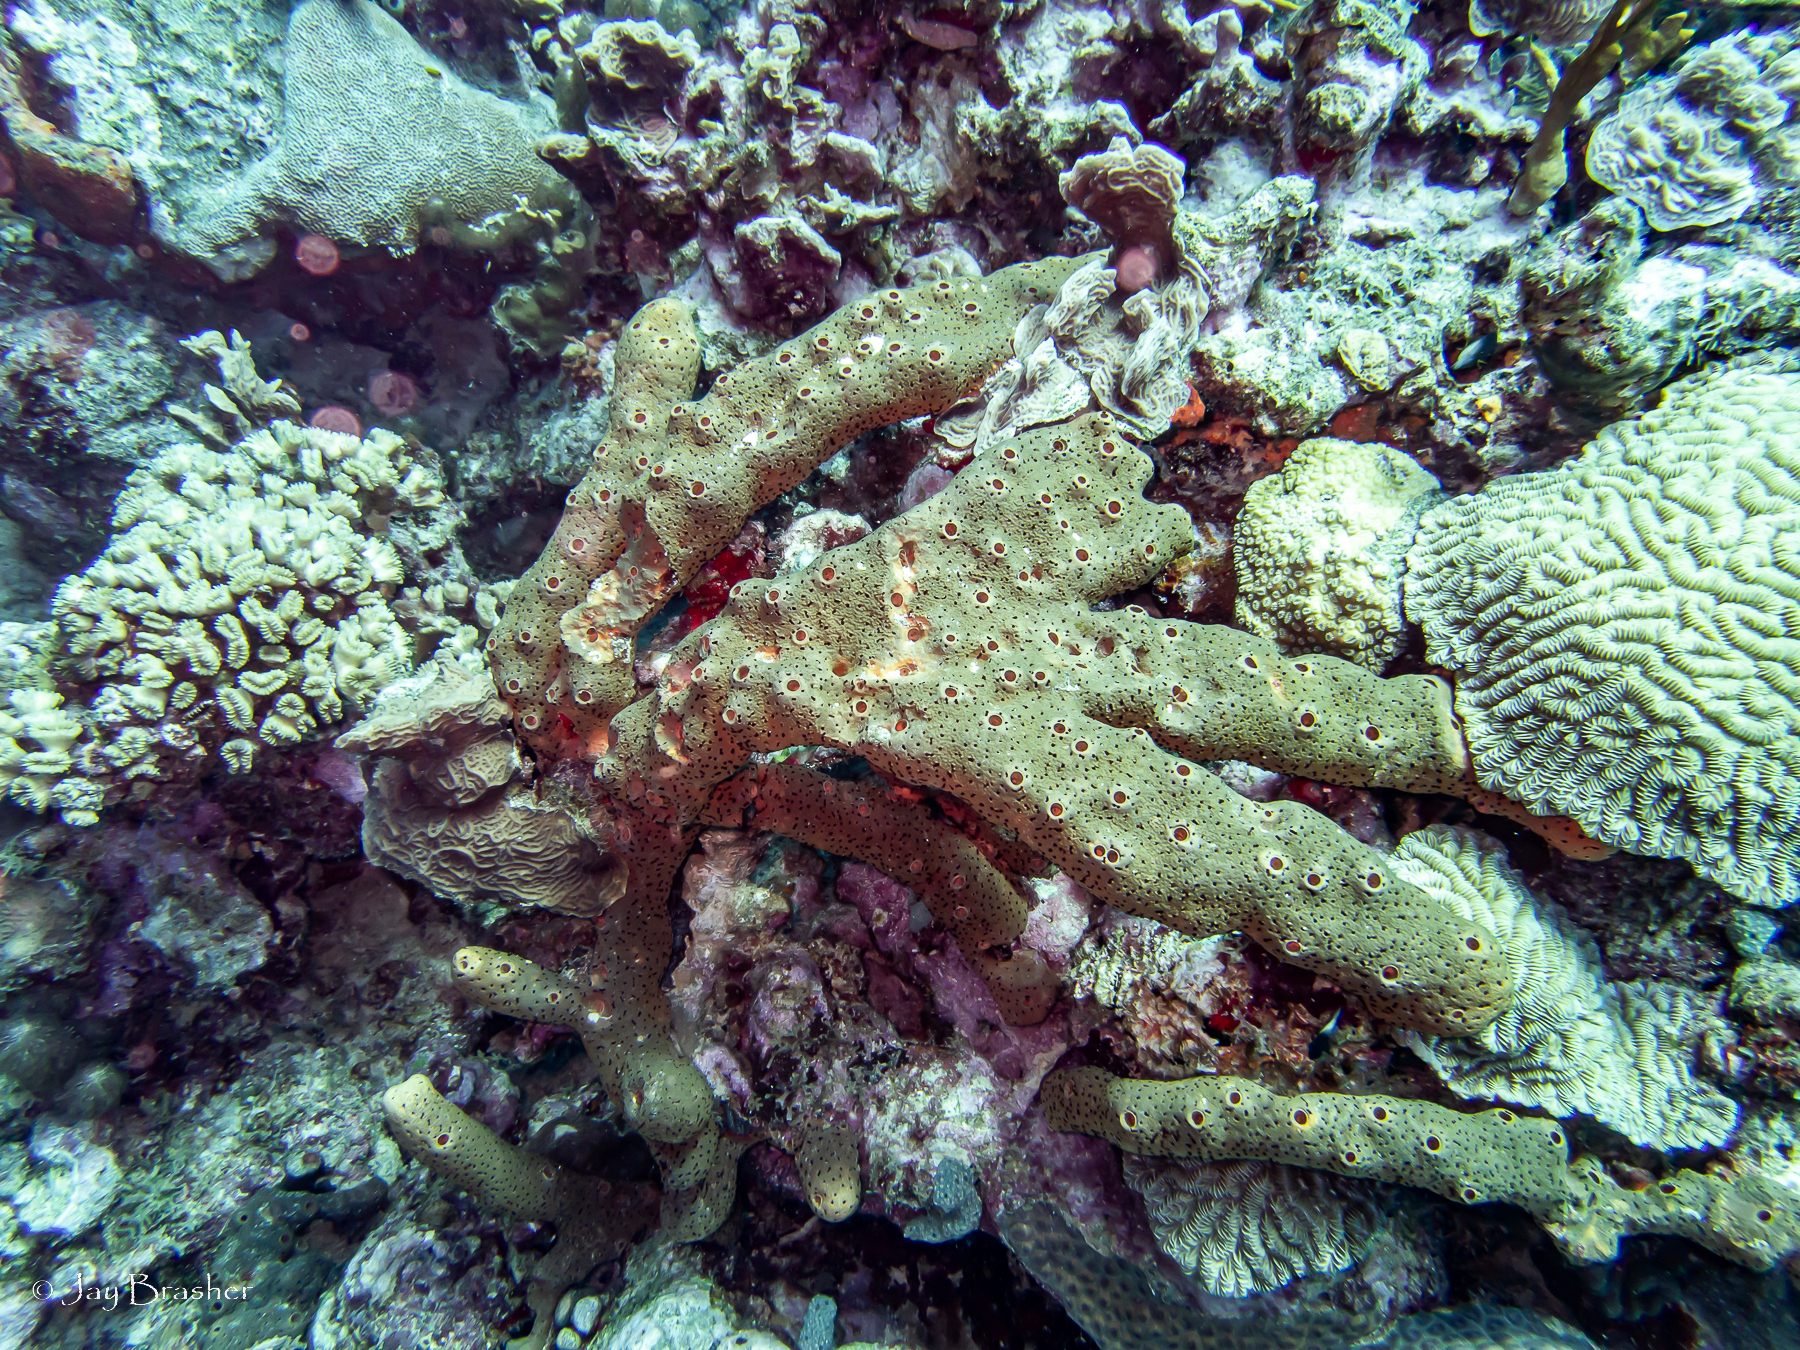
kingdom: Animalia
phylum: Cnidaria
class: Anthozoa
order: Scleractinia
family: Meandrinidae
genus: Meandrina
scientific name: Meandrina meandrites
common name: Maze coral
